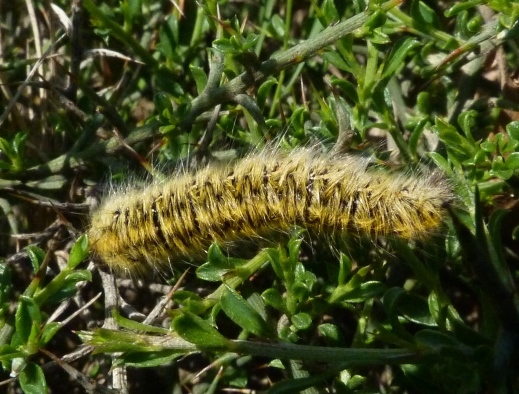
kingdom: Animalia
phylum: Arthropoda
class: Insecta
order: Lepidoptera
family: Lasiocampidae
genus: Lasiocampa
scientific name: Lasiocampa trifolii
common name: Grass eggar
